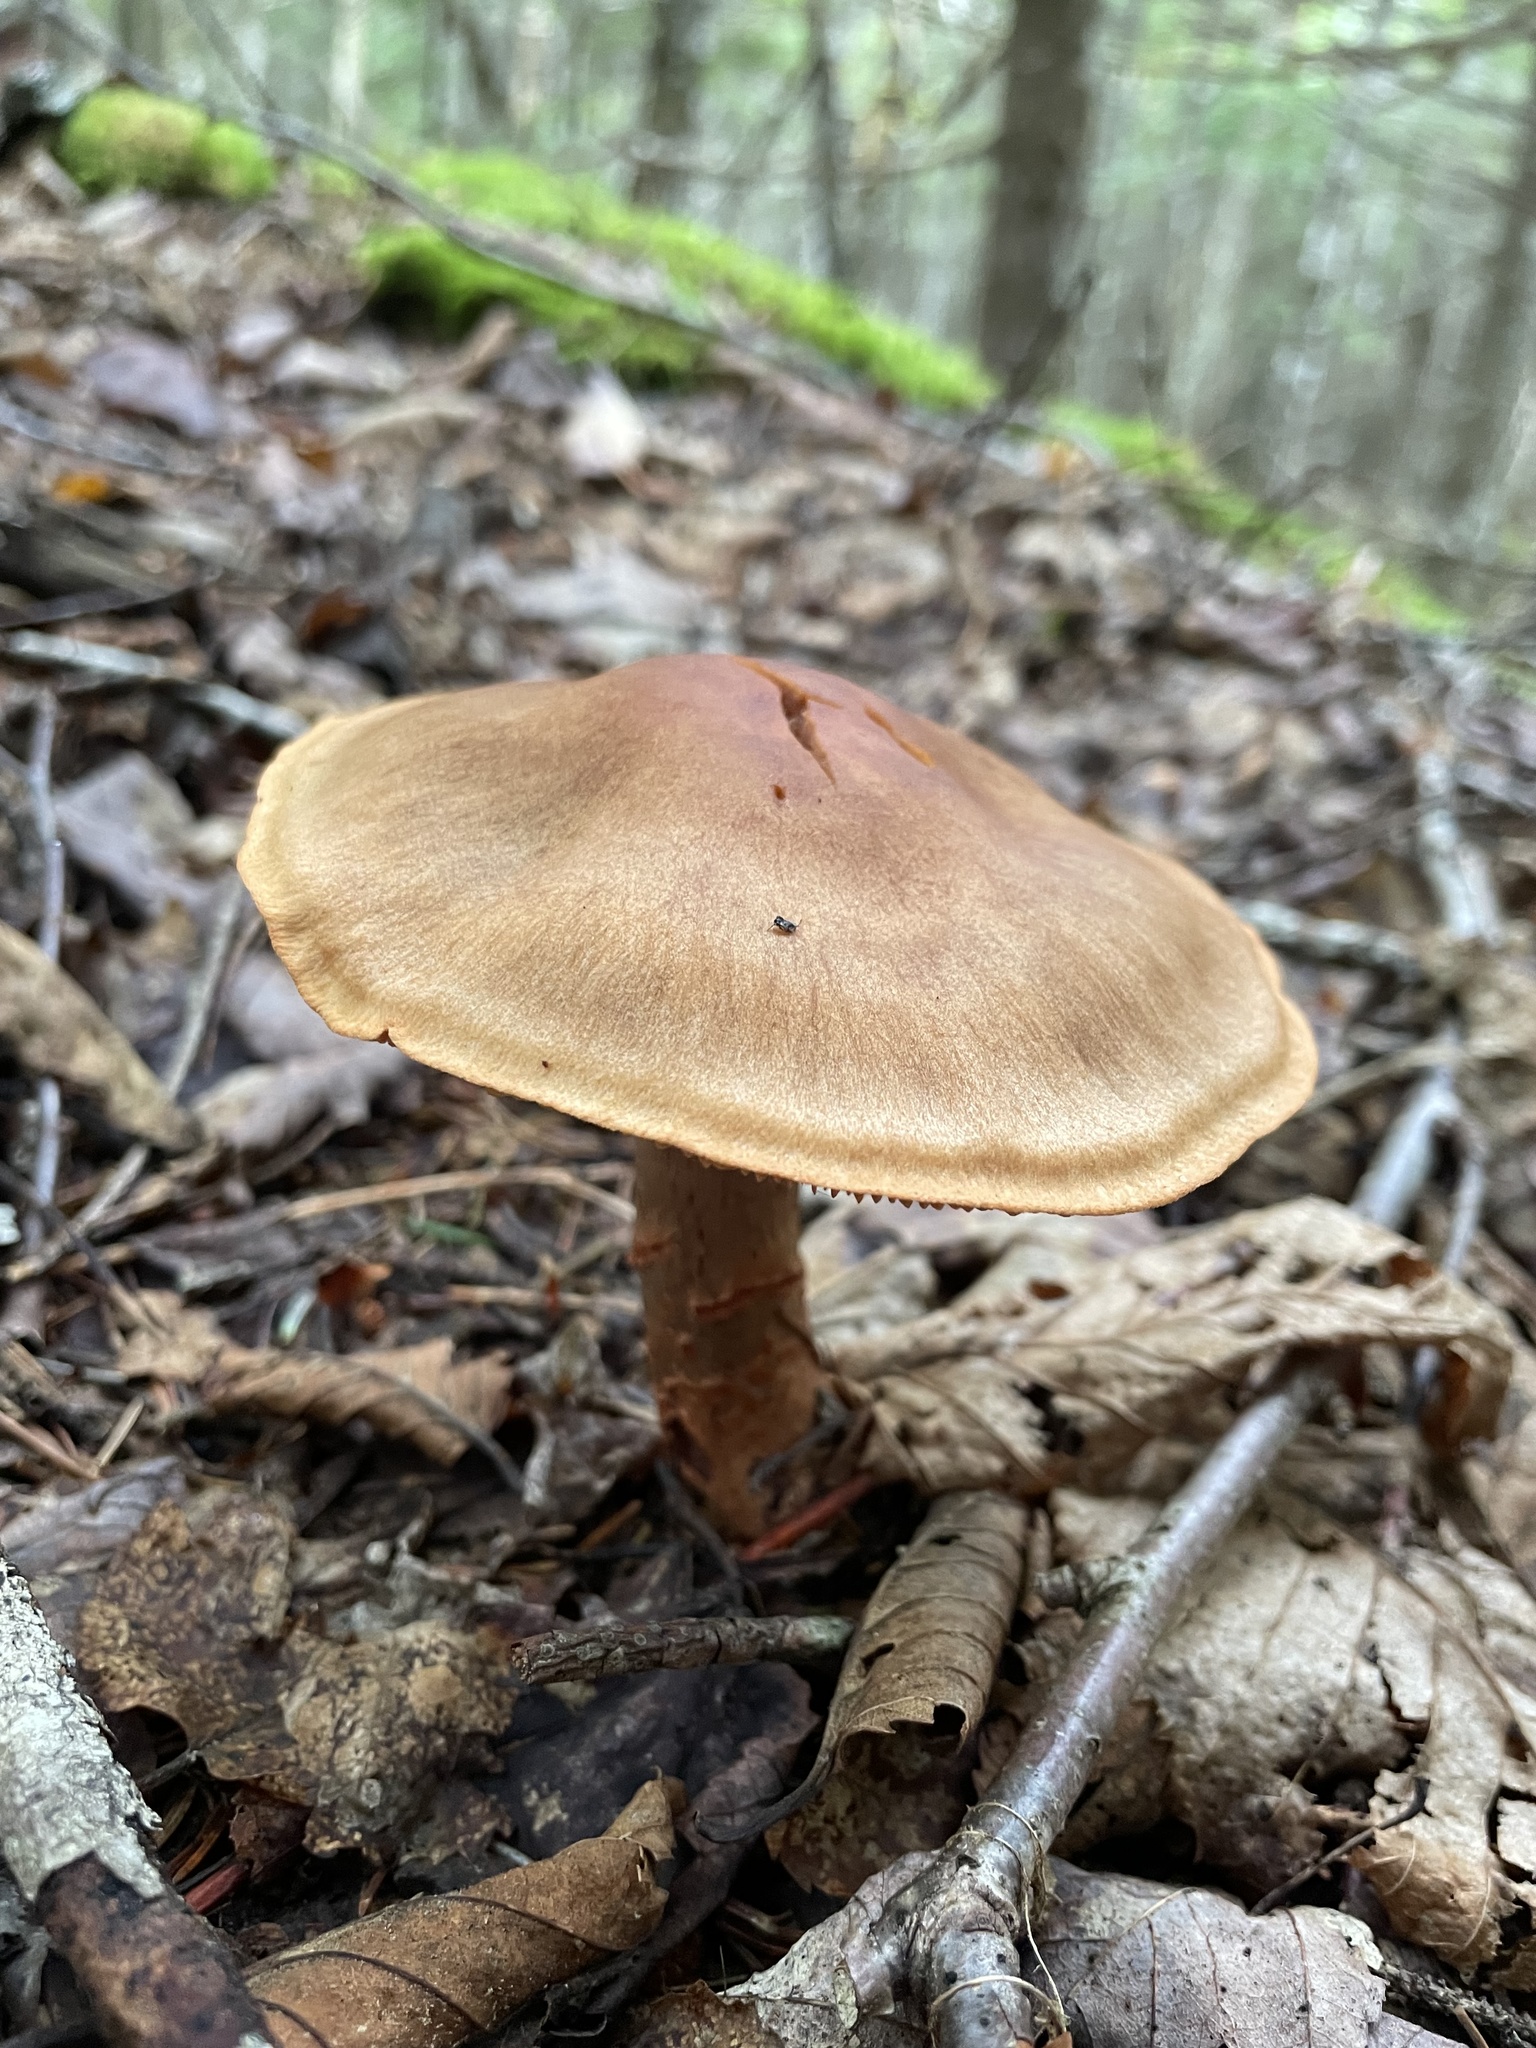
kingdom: Fungi
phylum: Basidiomycota
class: Agaricomycetes
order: Agaricales
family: Cortinariaceae
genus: Cortinarius
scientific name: Cortinarius armillatus
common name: Red banded webcap
